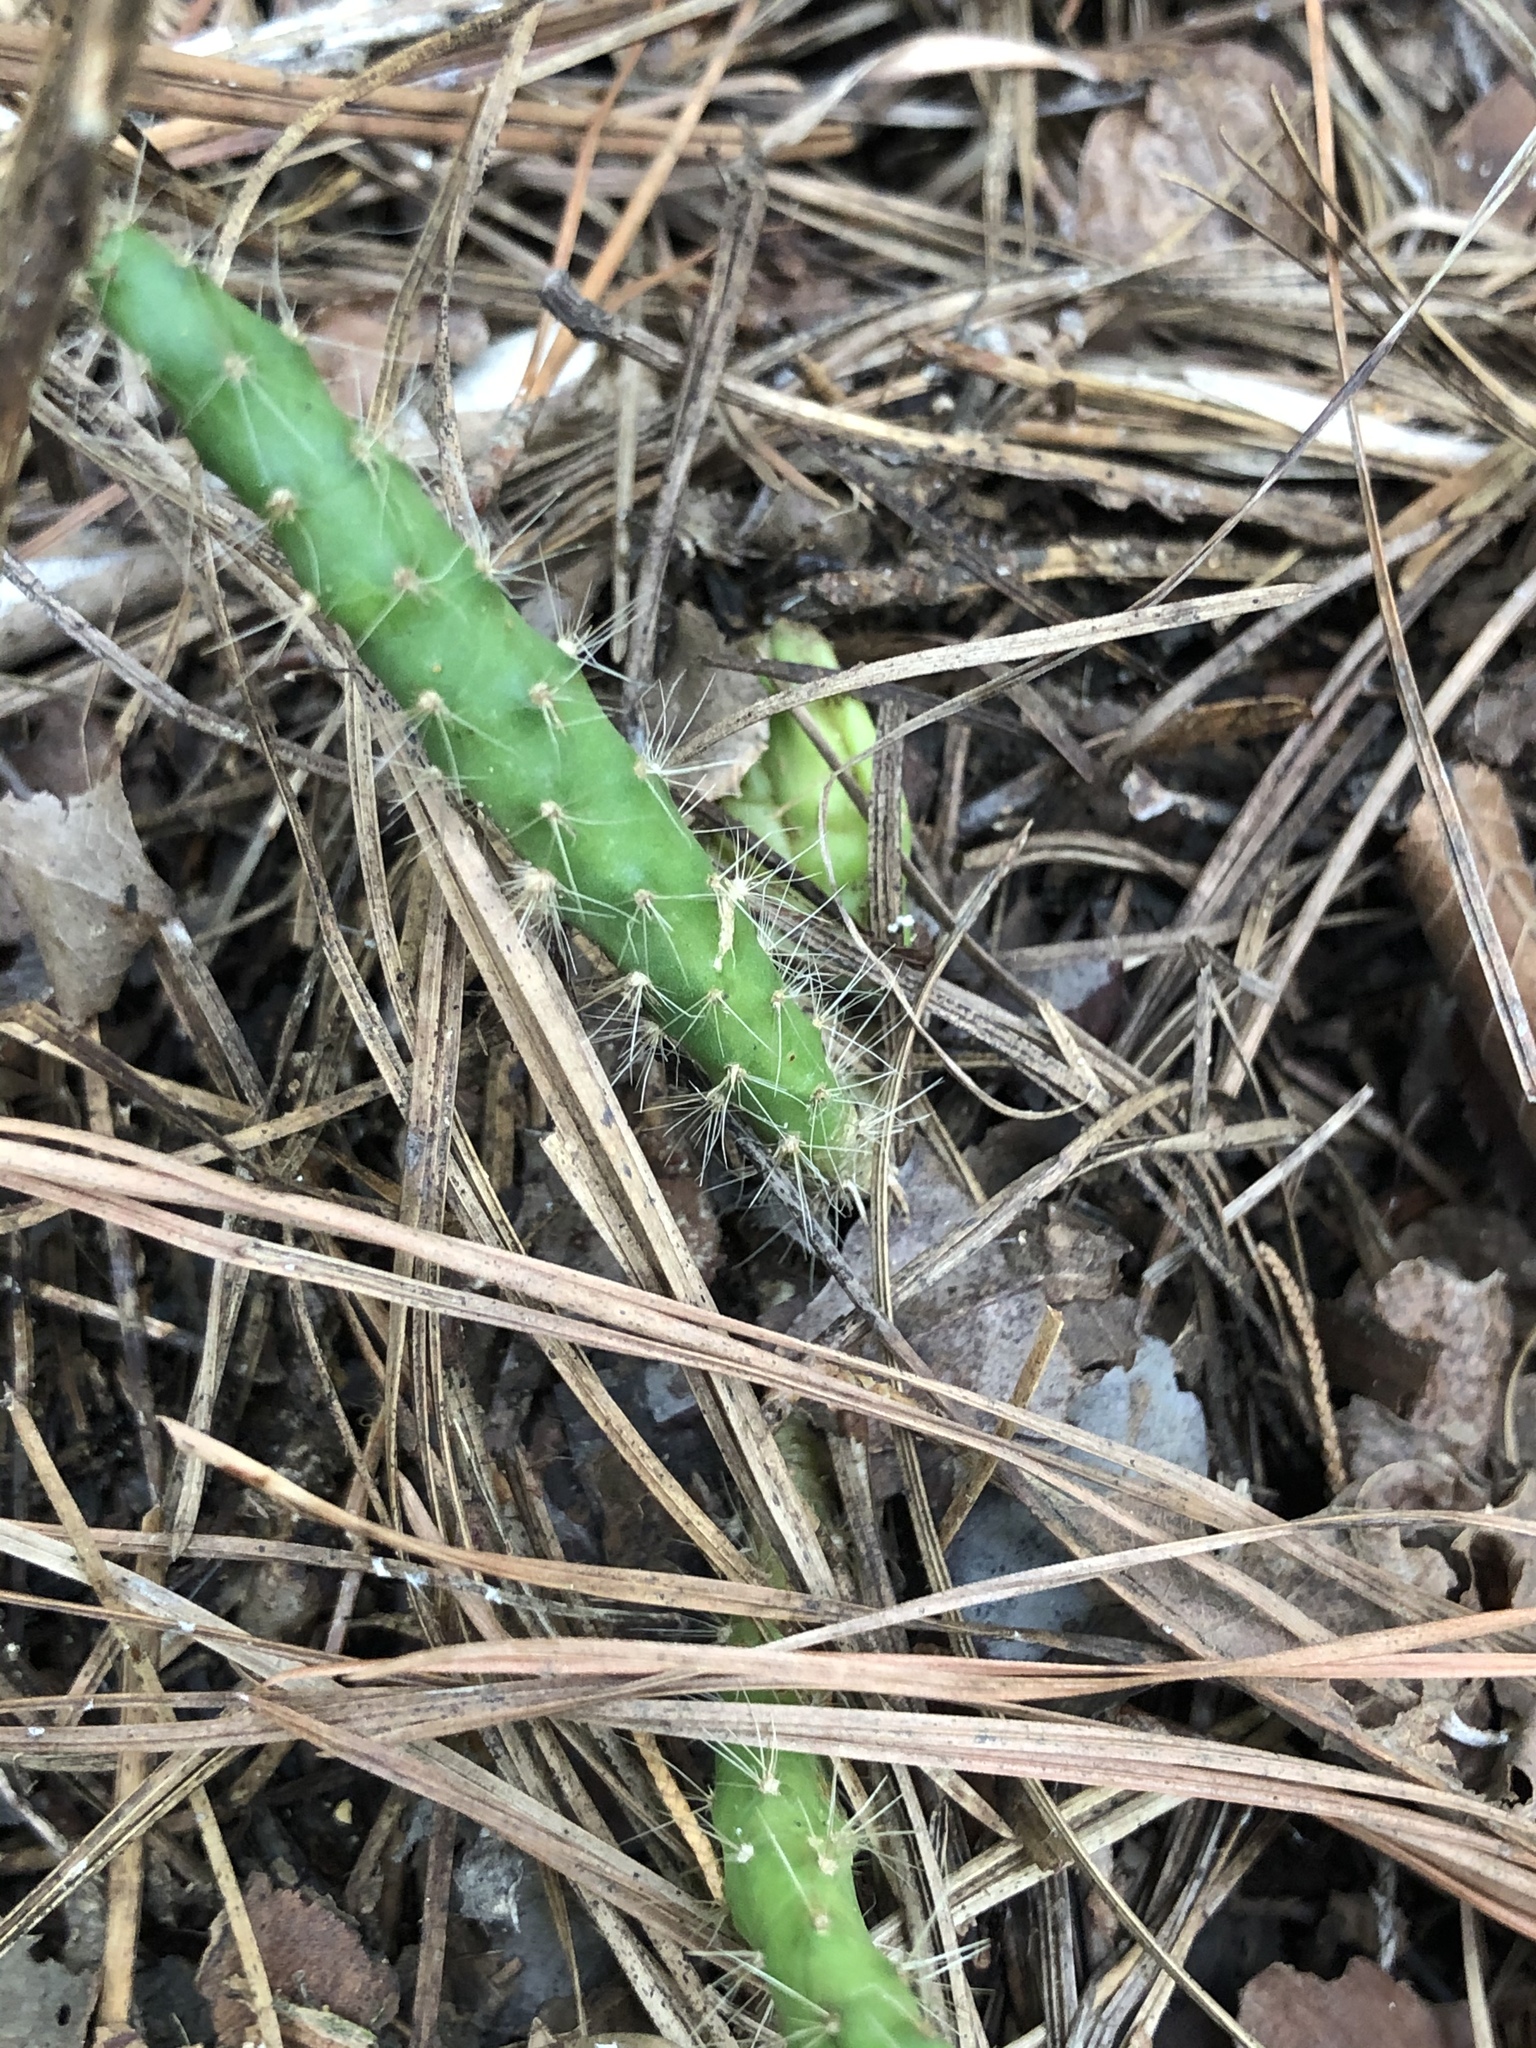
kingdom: Plantae
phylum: Tracheophyta
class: Magnoliopsida
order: Caryophyllales
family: Cactaceae
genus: Opuntia
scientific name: Opuntia mesacantha
